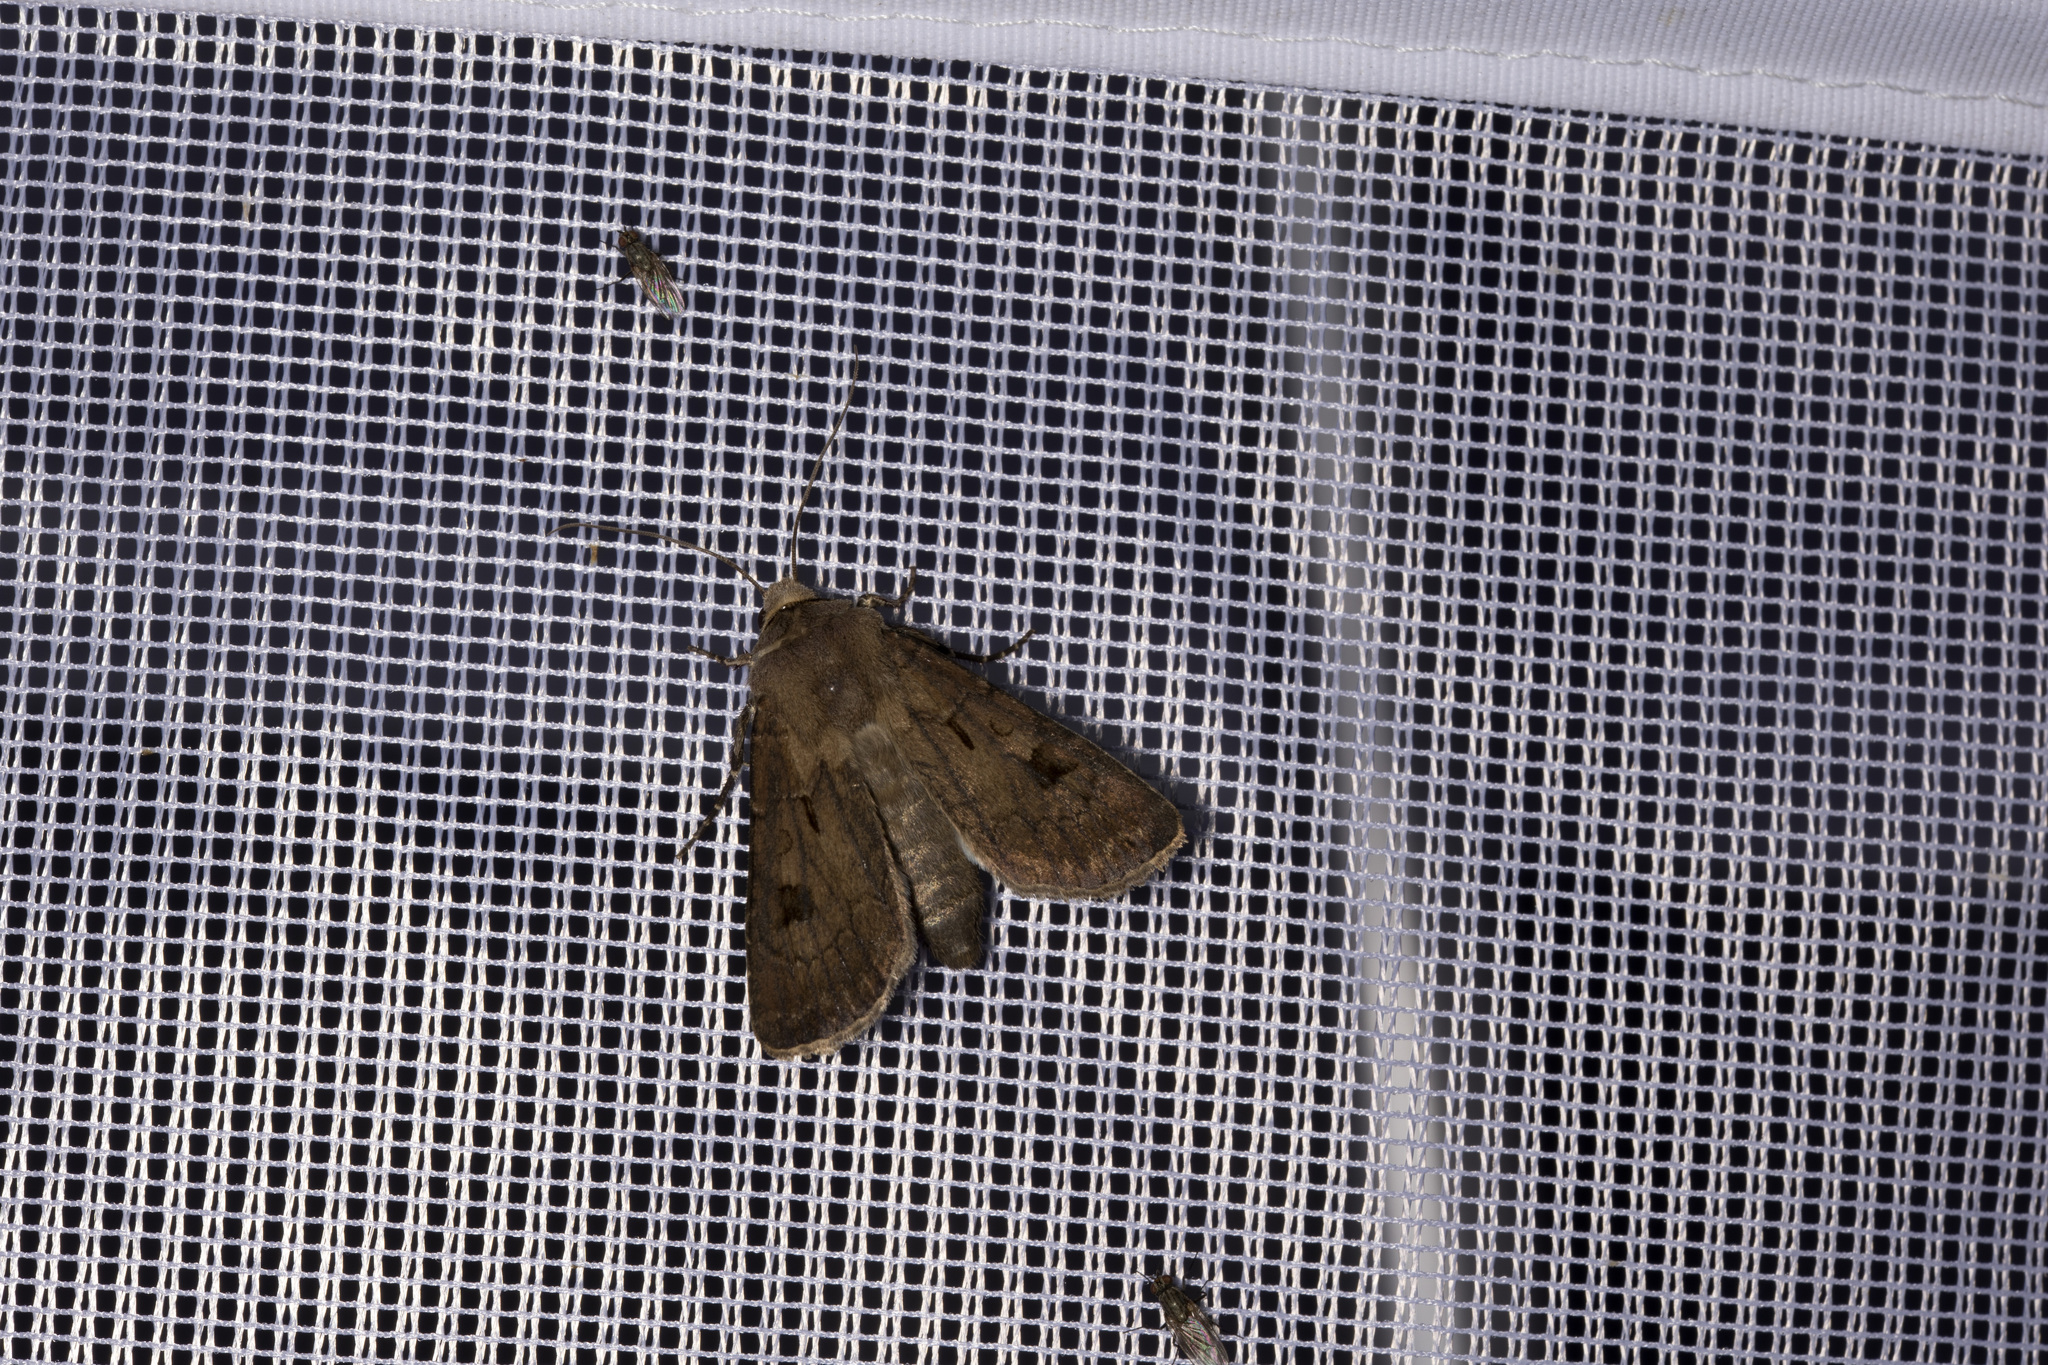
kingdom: Animalia
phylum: Arthropoda
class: Insecta
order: Lepidoptera
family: Noctuidae
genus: Agrotis
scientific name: Agrotis exclamationis
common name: Heart and dart
